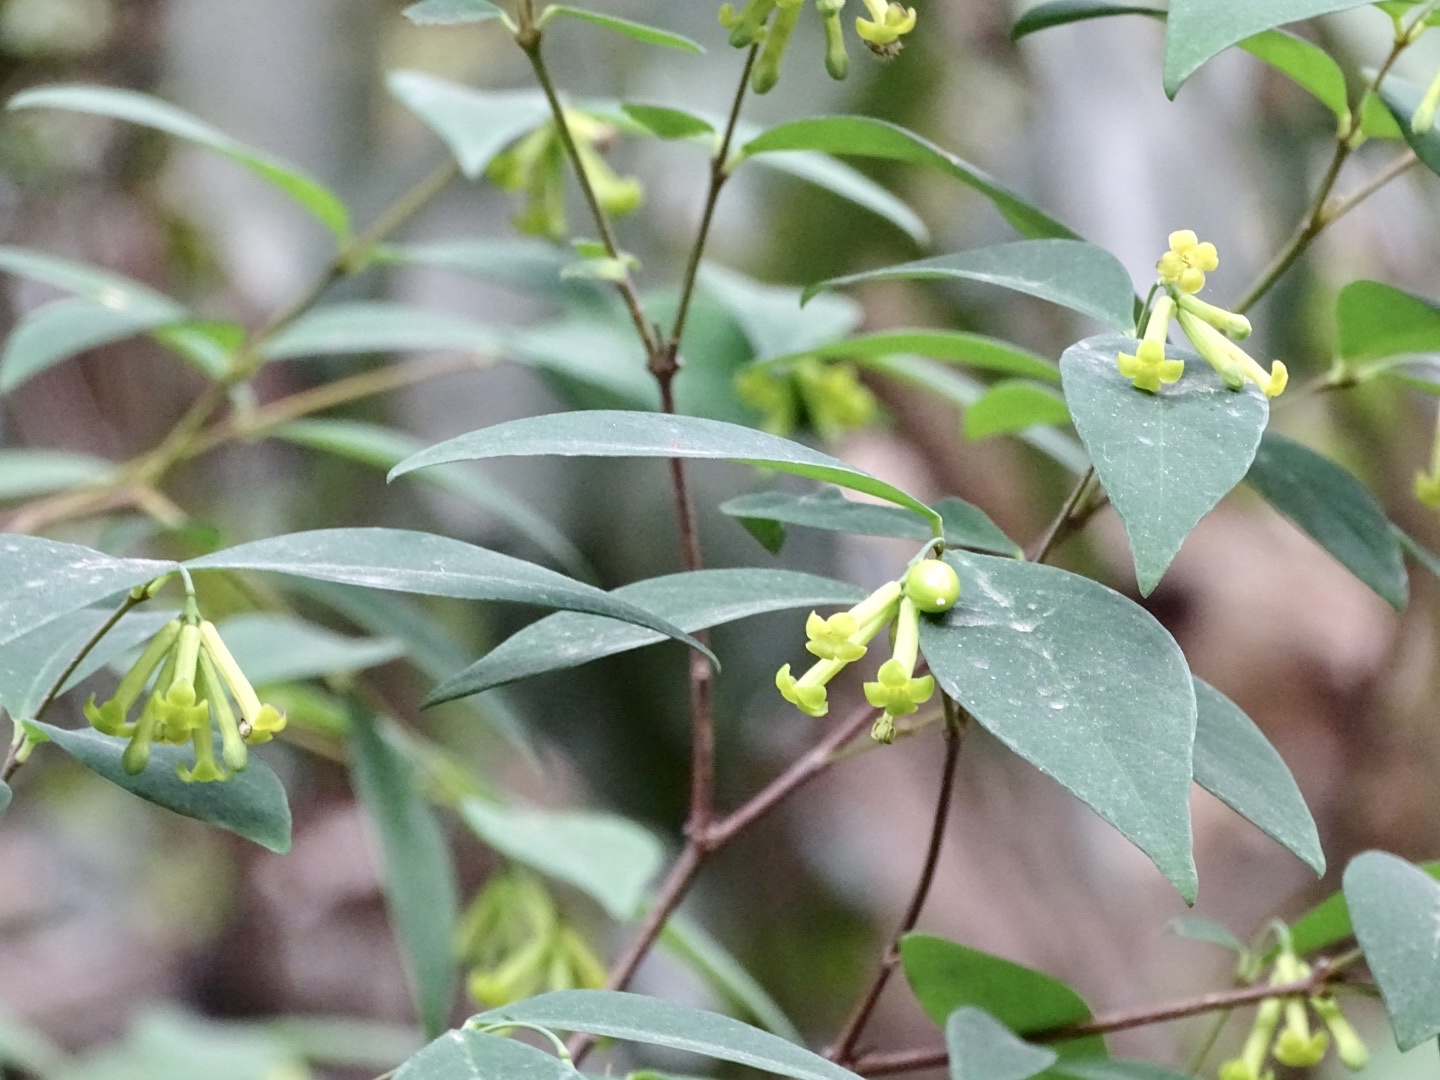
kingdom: Plantae
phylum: Tracheophyta
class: Magnoliopsida
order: Malvales
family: Thymelaeaceae
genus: Wikstroemia
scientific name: Wikstroemia nutans
